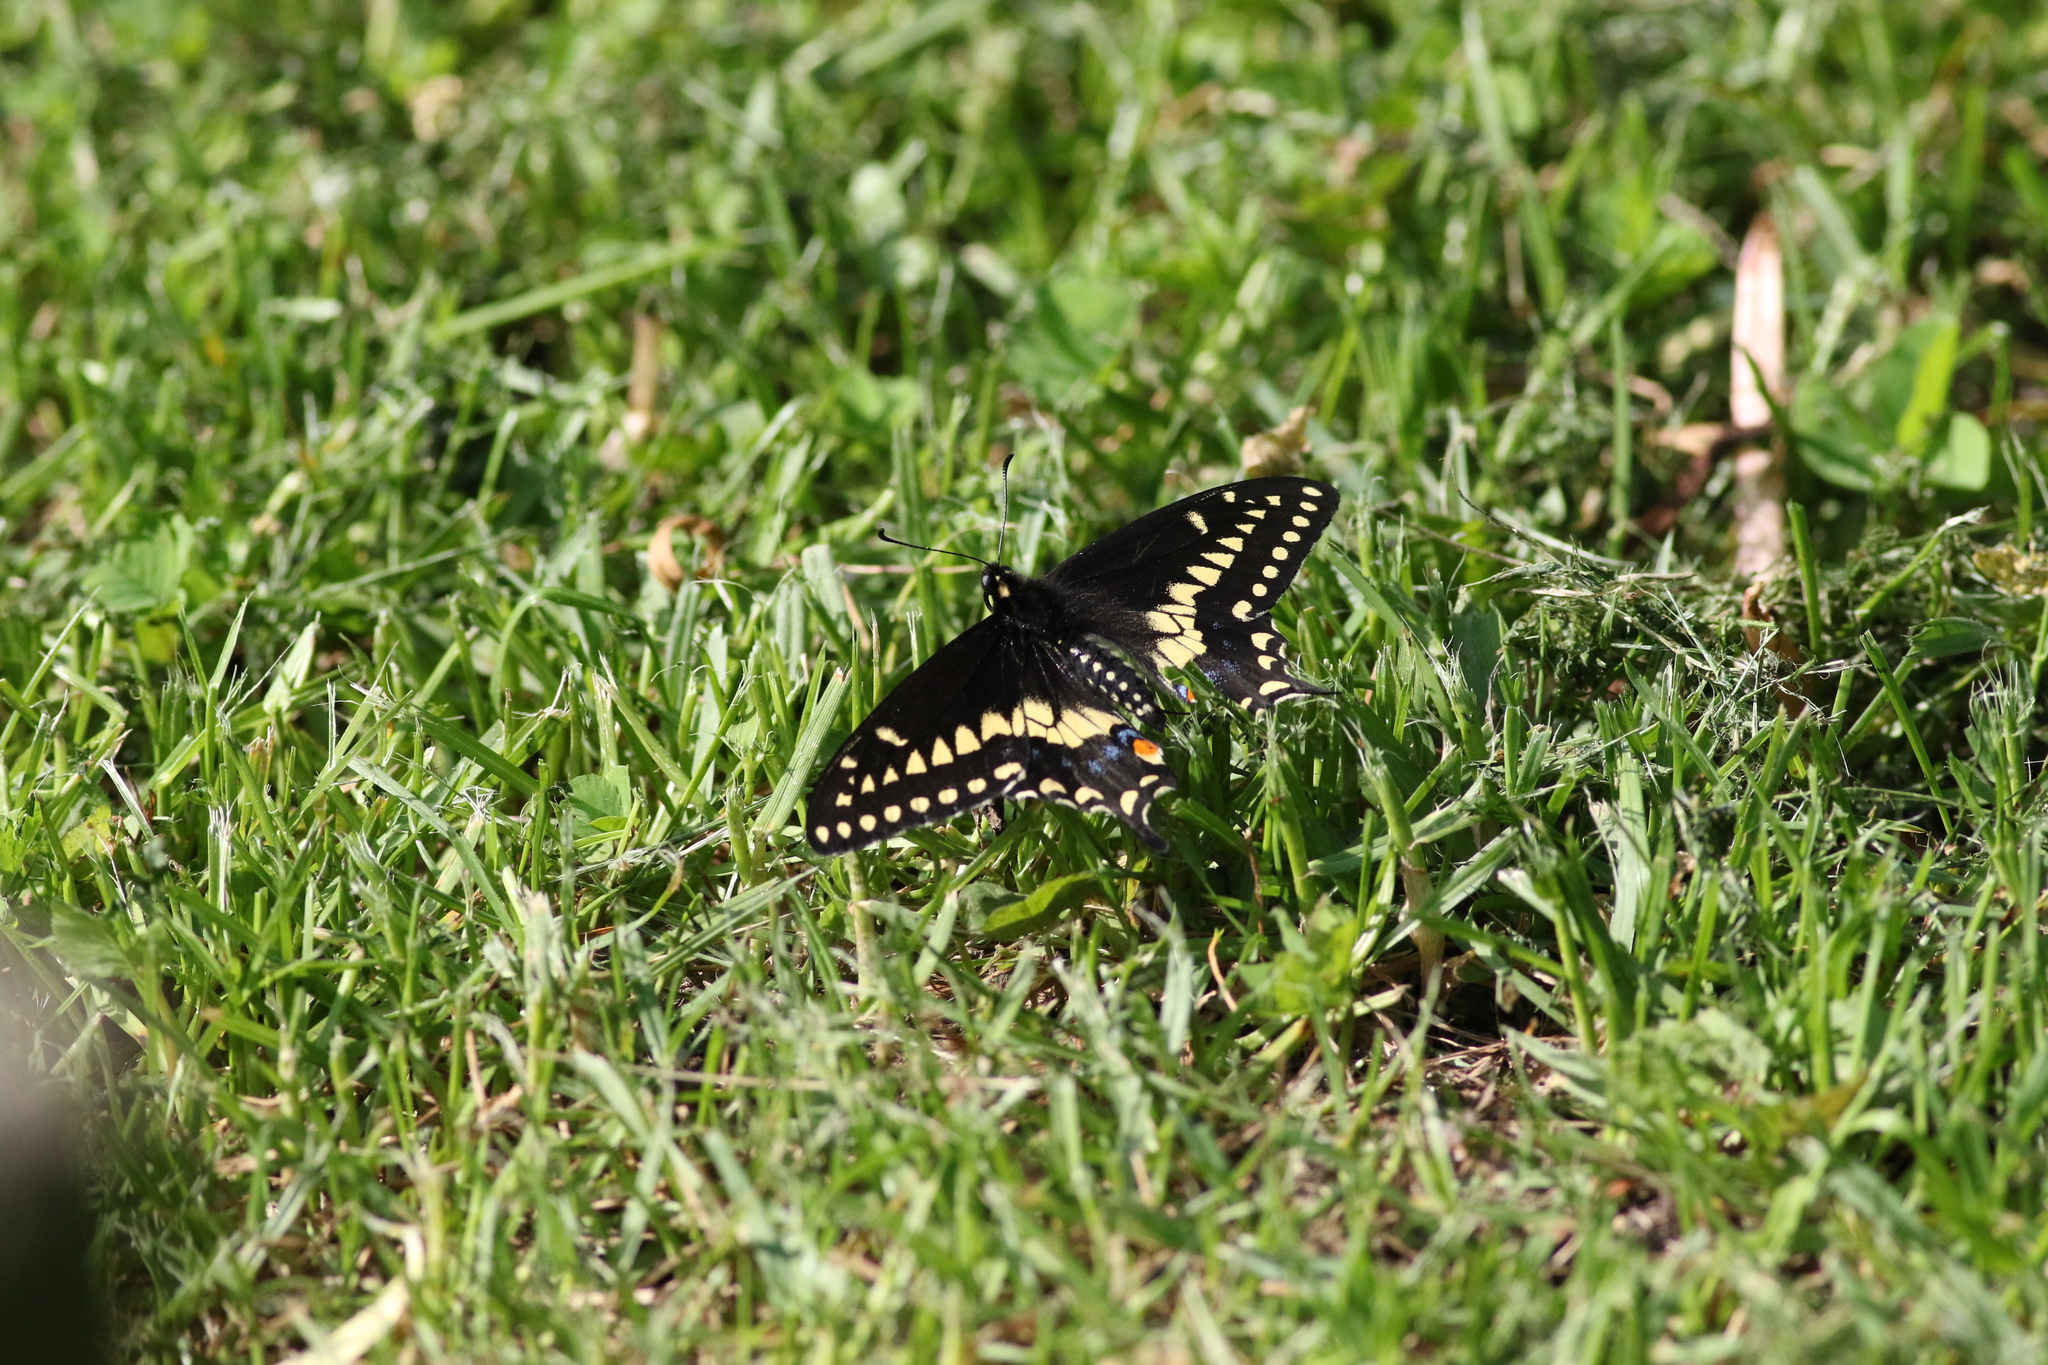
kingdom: Animalia
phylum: Arthropoda
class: Insecta
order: Lepidoptera
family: Papilionidae
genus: Papilio
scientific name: Papilio polyxenes
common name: Black swallowtail
